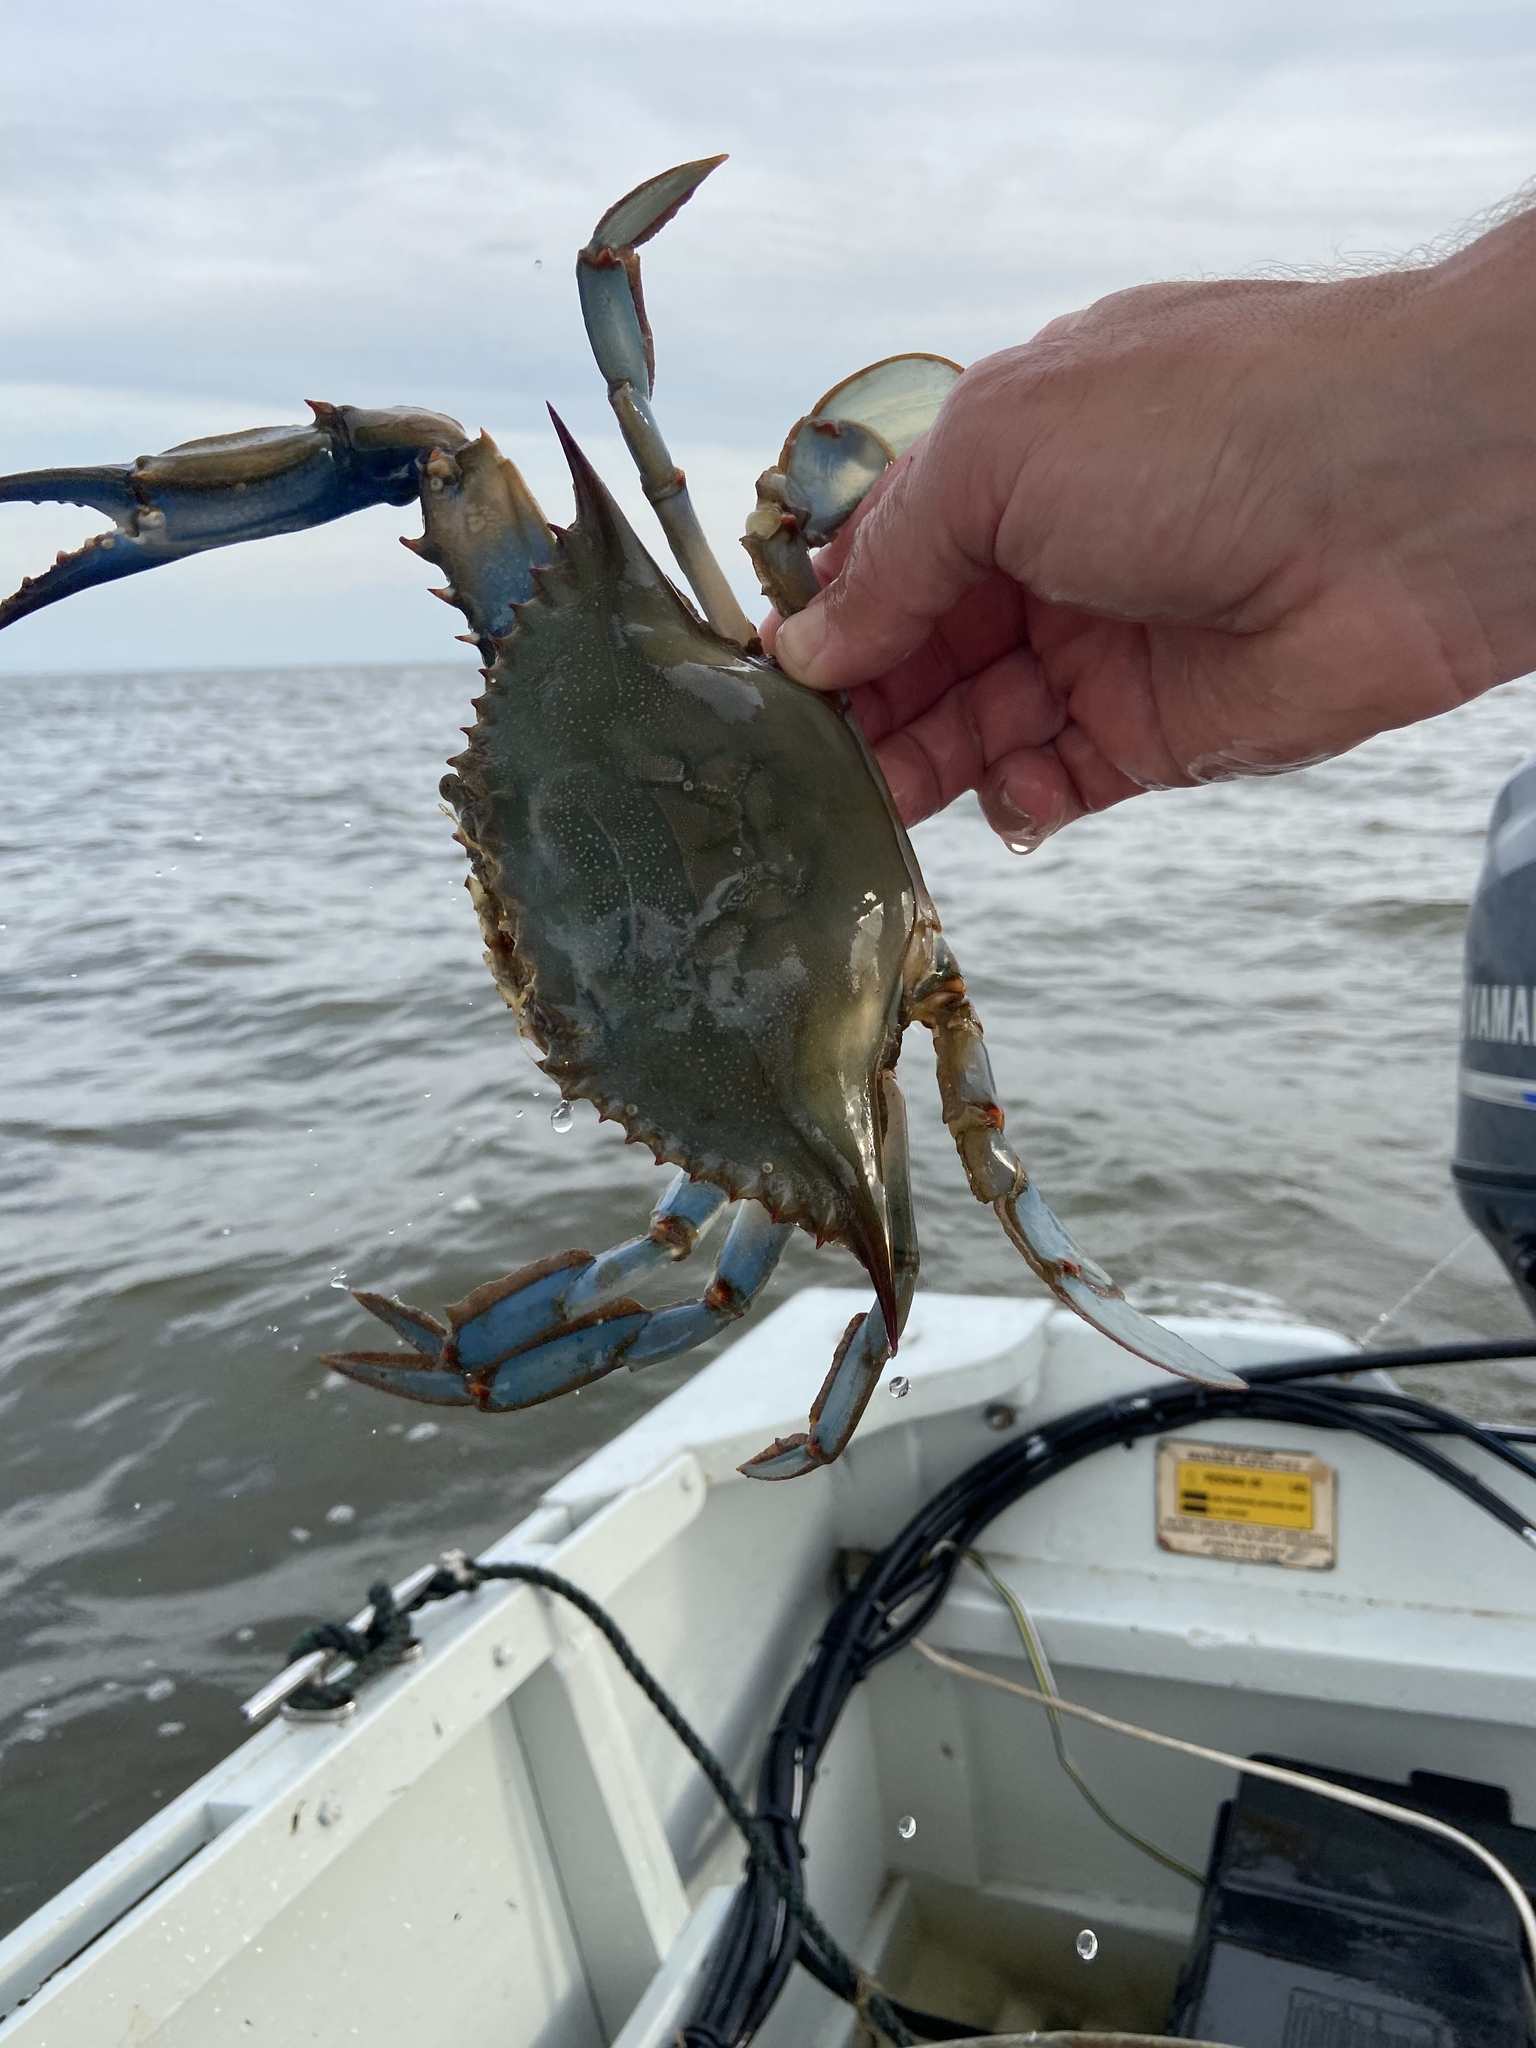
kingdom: Animalia
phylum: Arthropoda
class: Malacostraca
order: Decapoda
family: Portunidae
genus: Callinectes
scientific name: Callinectes sapidus
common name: Blue crab
